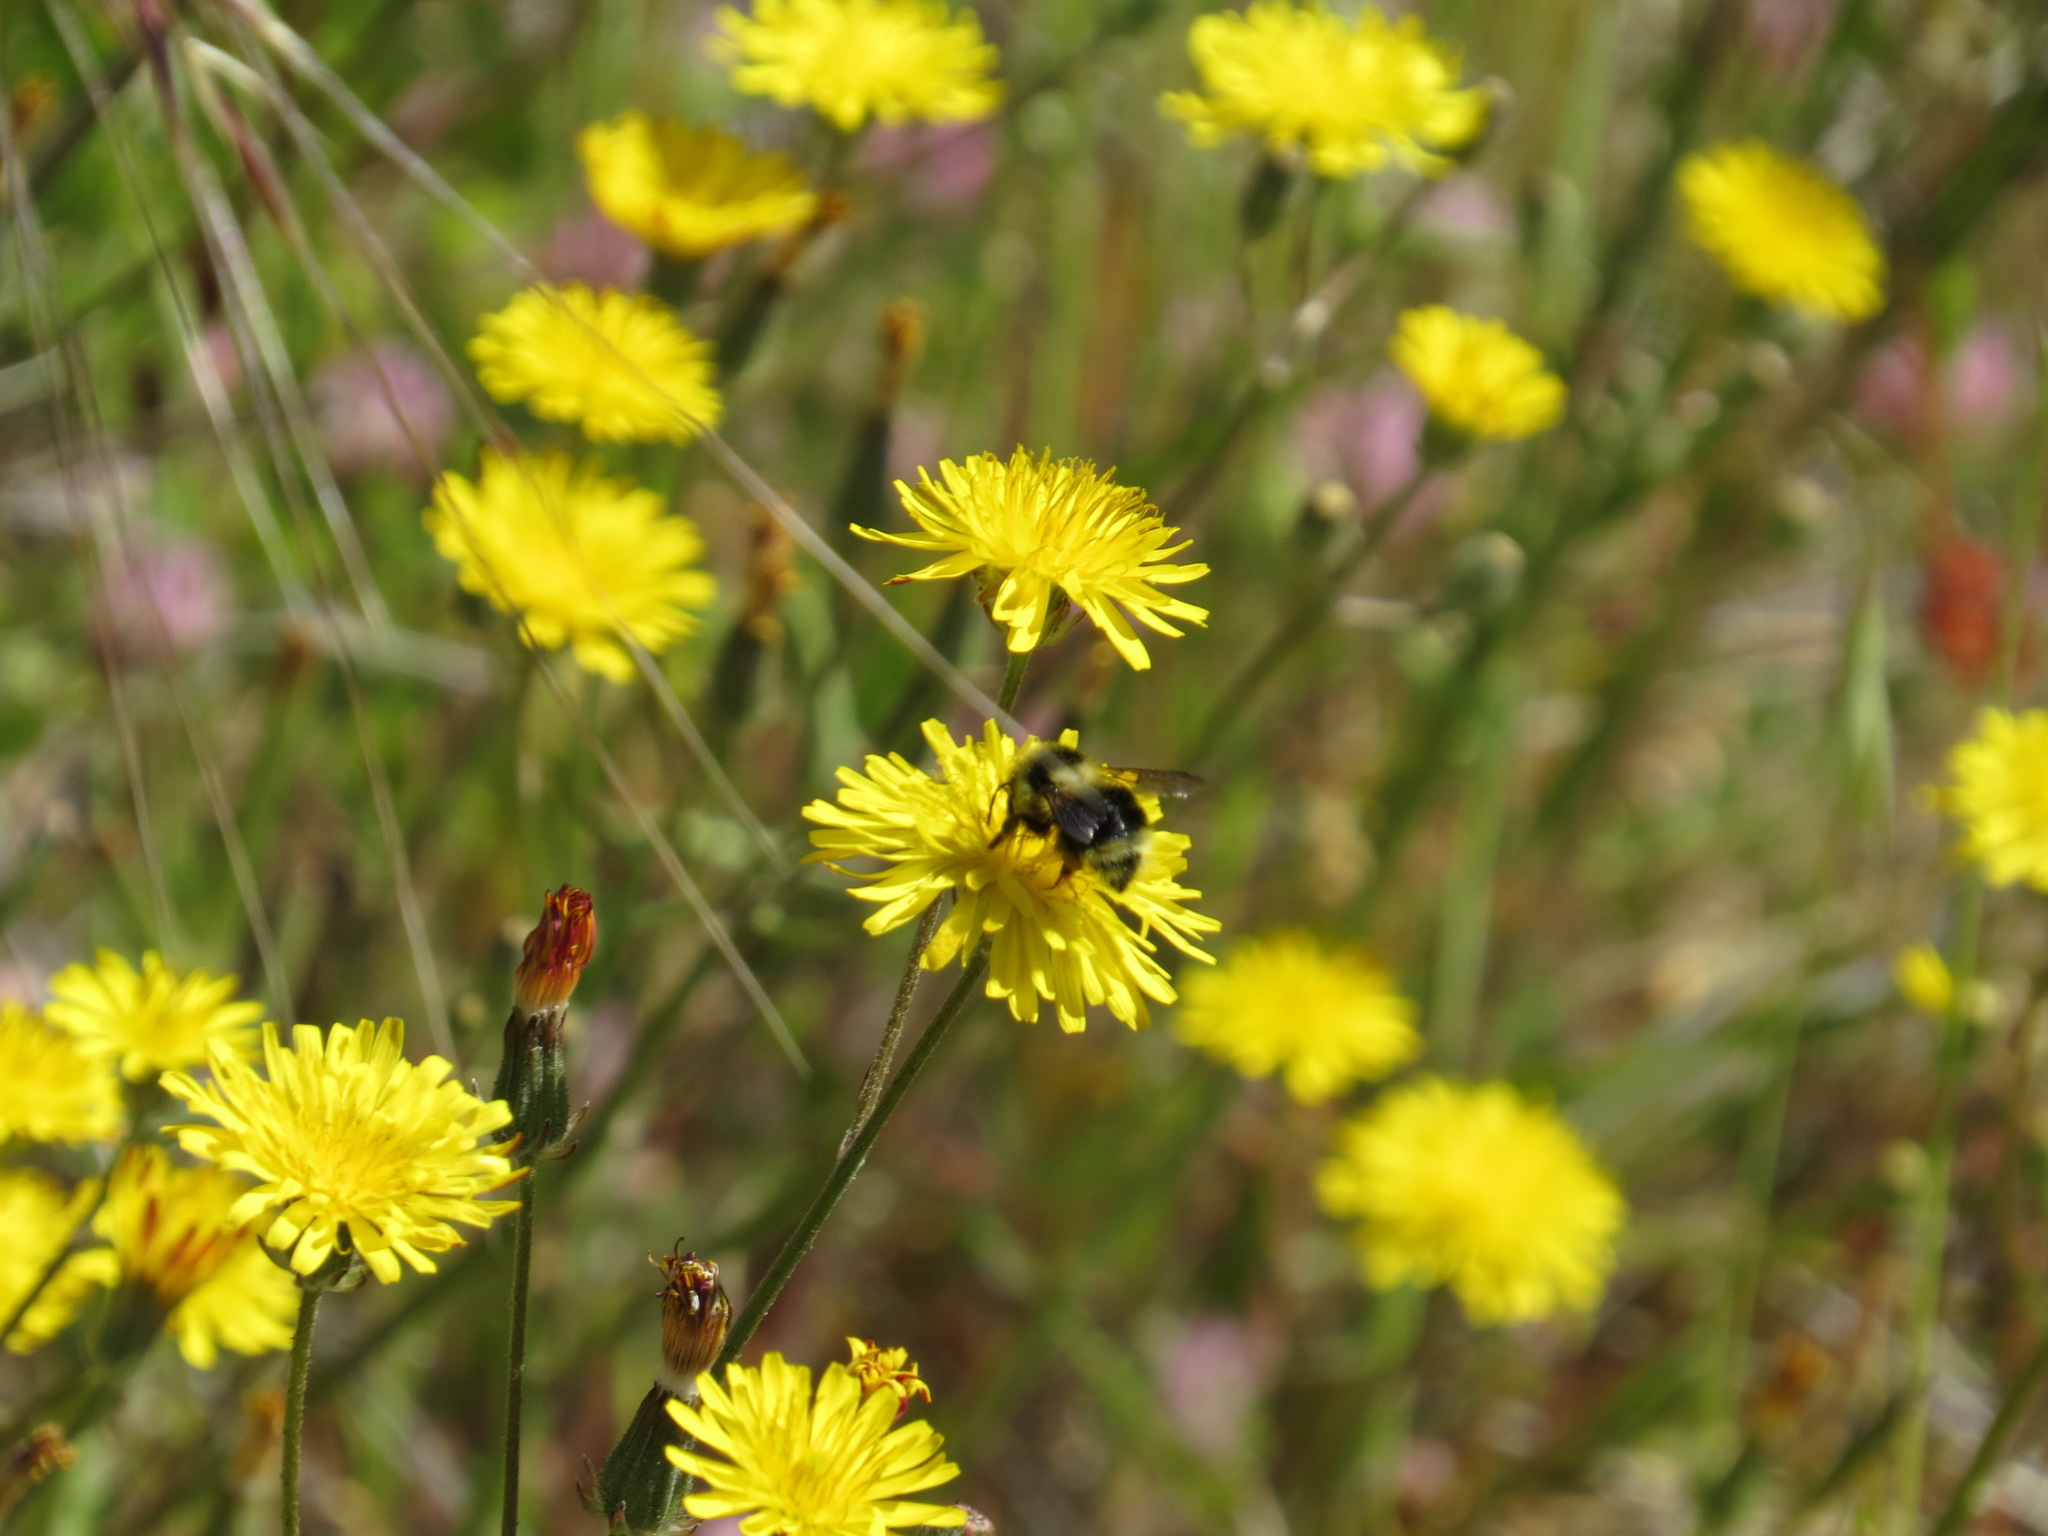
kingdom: Animalia
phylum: Arthropoda
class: Insecta
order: Hymenoptera
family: Apidae
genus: Bombus
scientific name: Bombus melanopygus
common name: Black tail bumble bee
